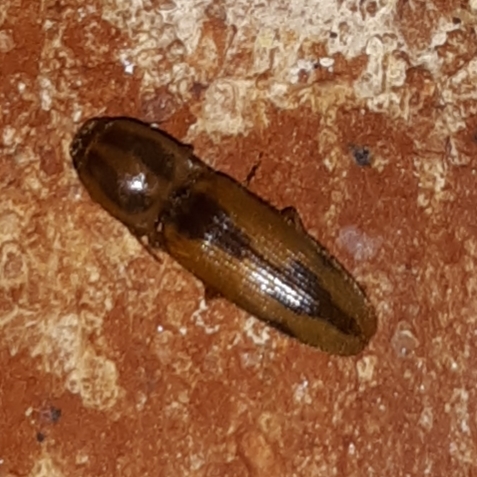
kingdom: Animalia
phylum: Arthropoda
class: Insecta
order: Coleoptera
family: Elateridae
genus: Monocrepidius
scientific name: Monocrepidius
